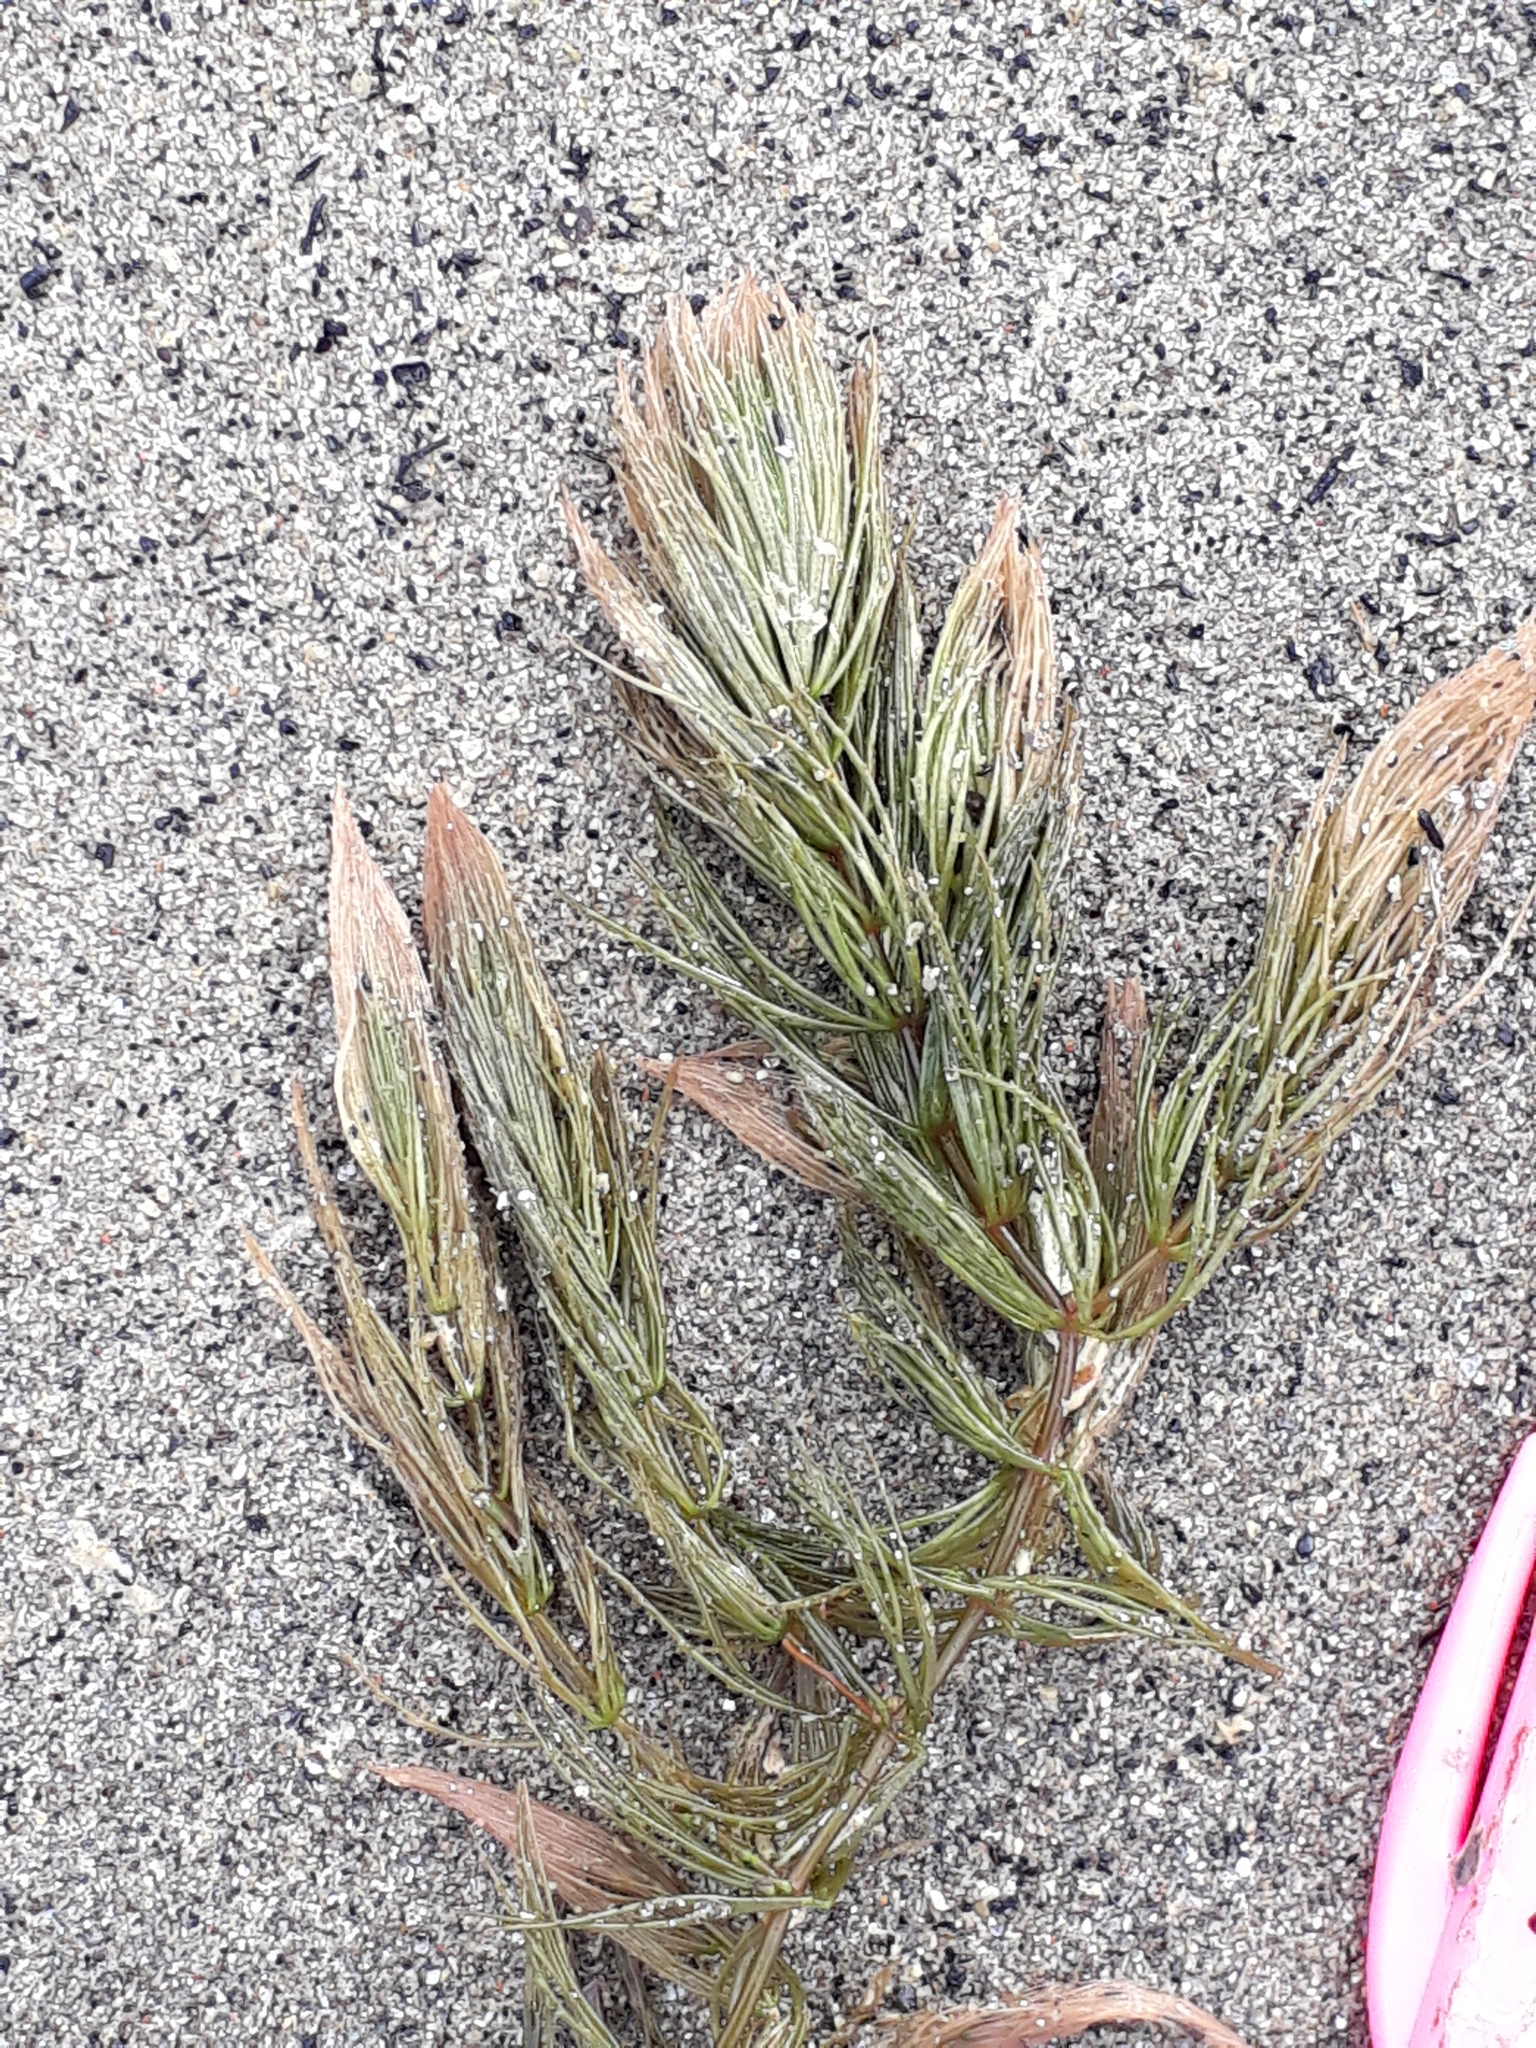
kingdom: Plantae
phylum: Tracheophyta
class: Magnoliopsida
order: Ceratophyllales
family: Ceratophyllaceae
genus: Ceratophyllum
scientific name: Ceratophyllum demersum
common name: Rigid hornwort
